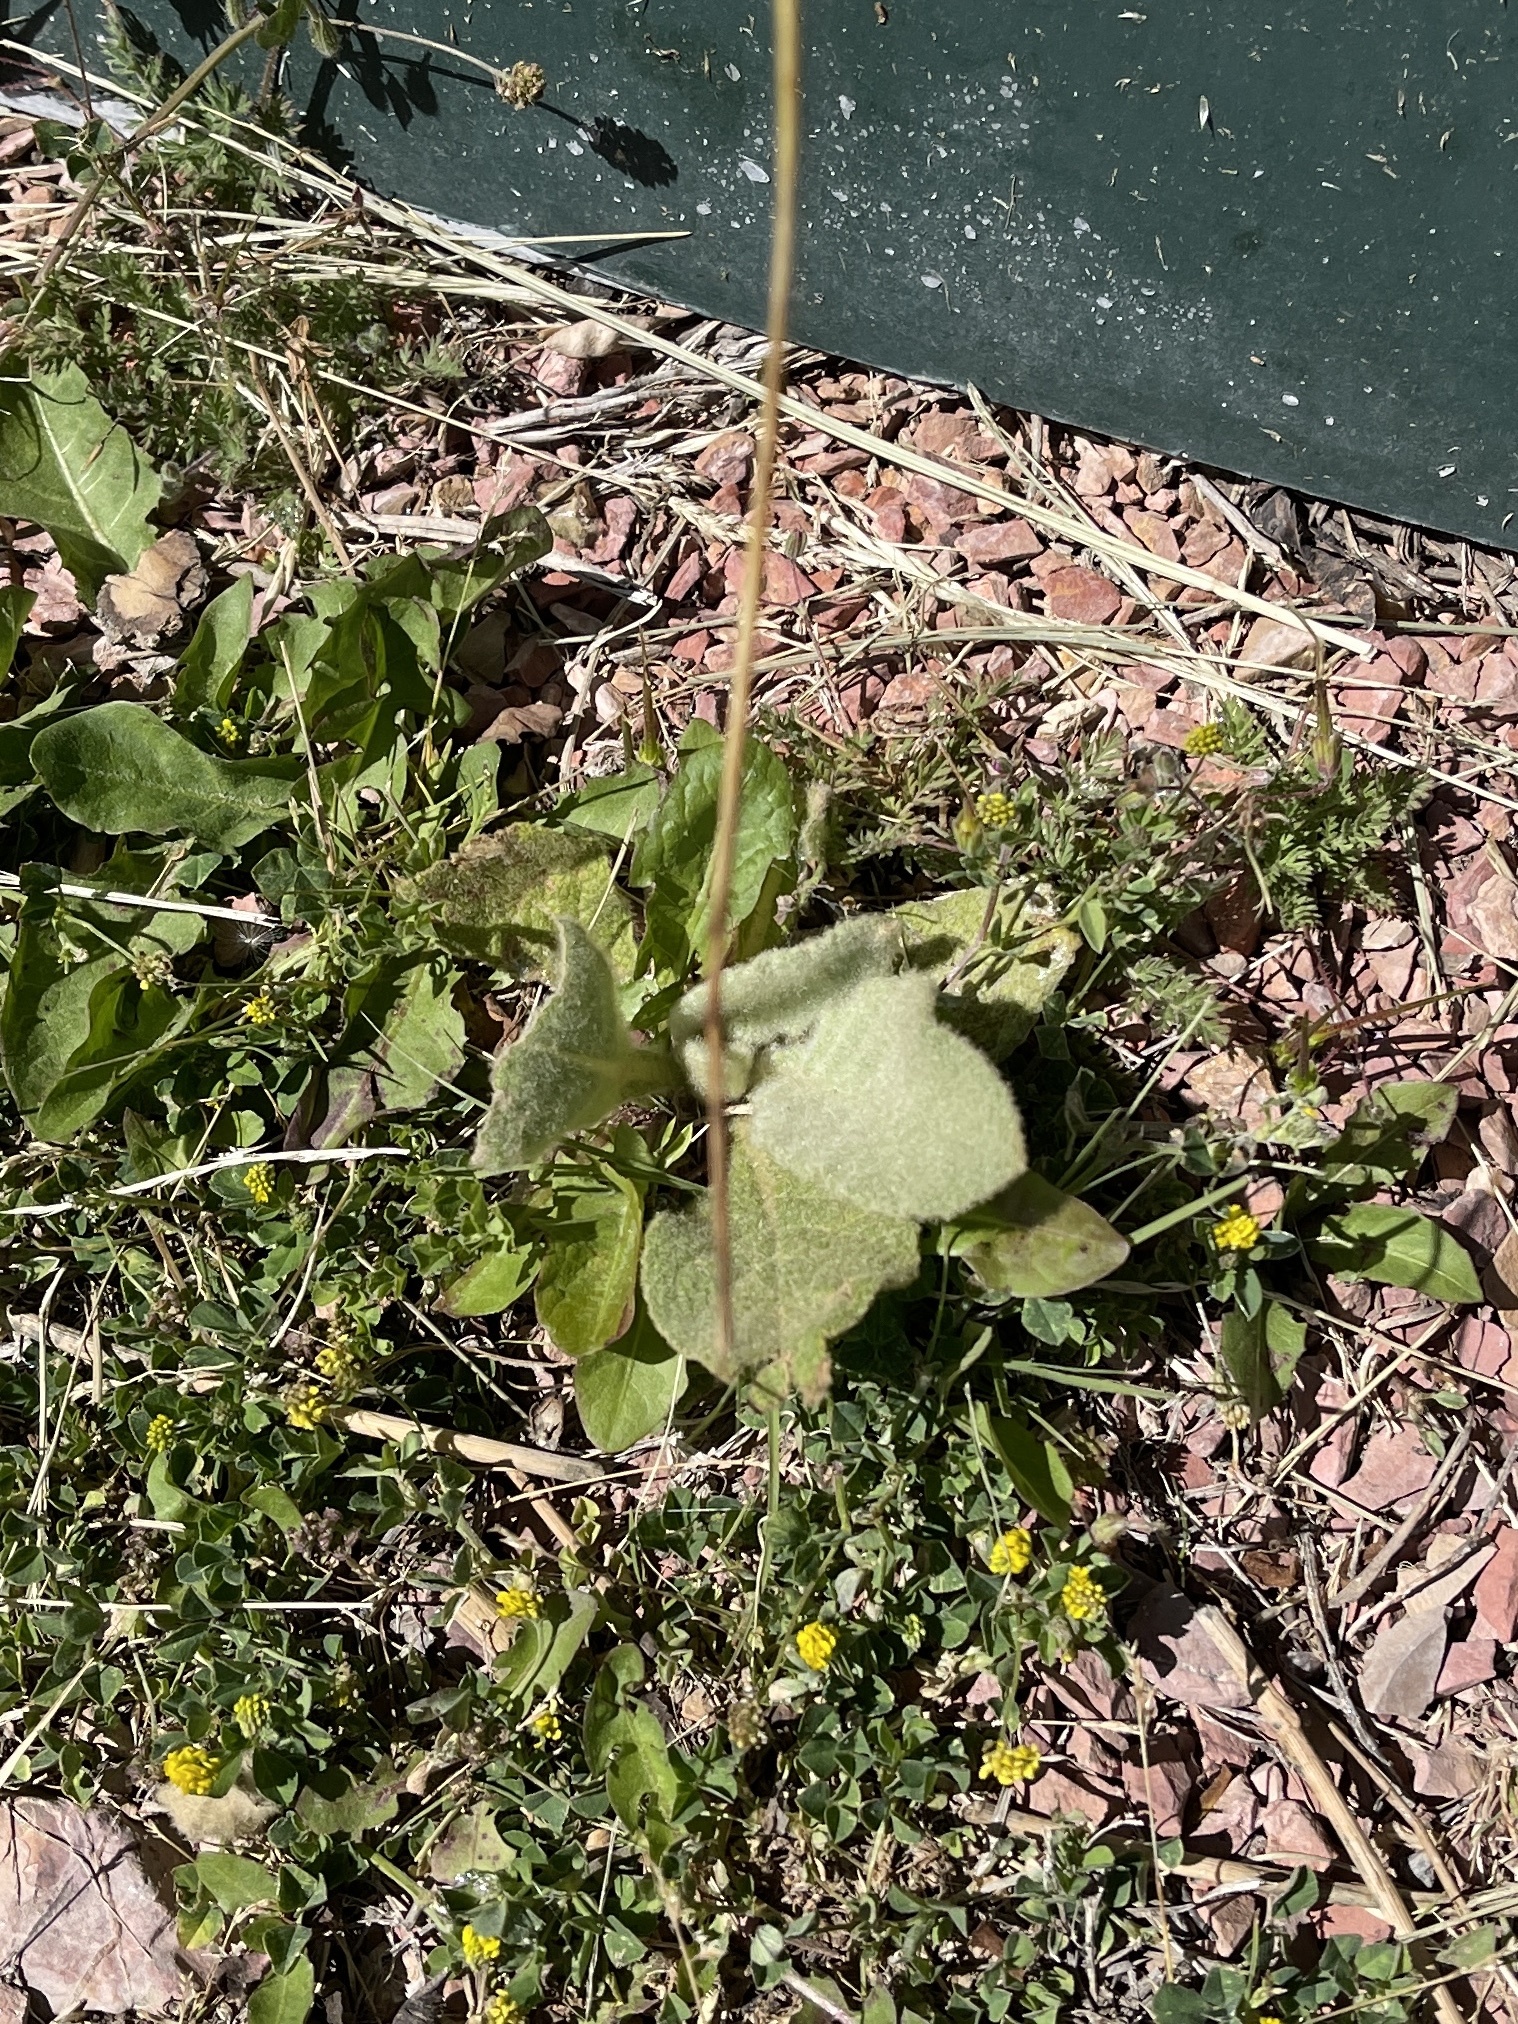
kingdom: Plantae
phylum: Tracheophyta
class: Magnoliopsida
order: Lamiales
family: Scrophulariaceae
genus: Verbascum
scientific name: Verbascum thapsus
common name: Common mullein
